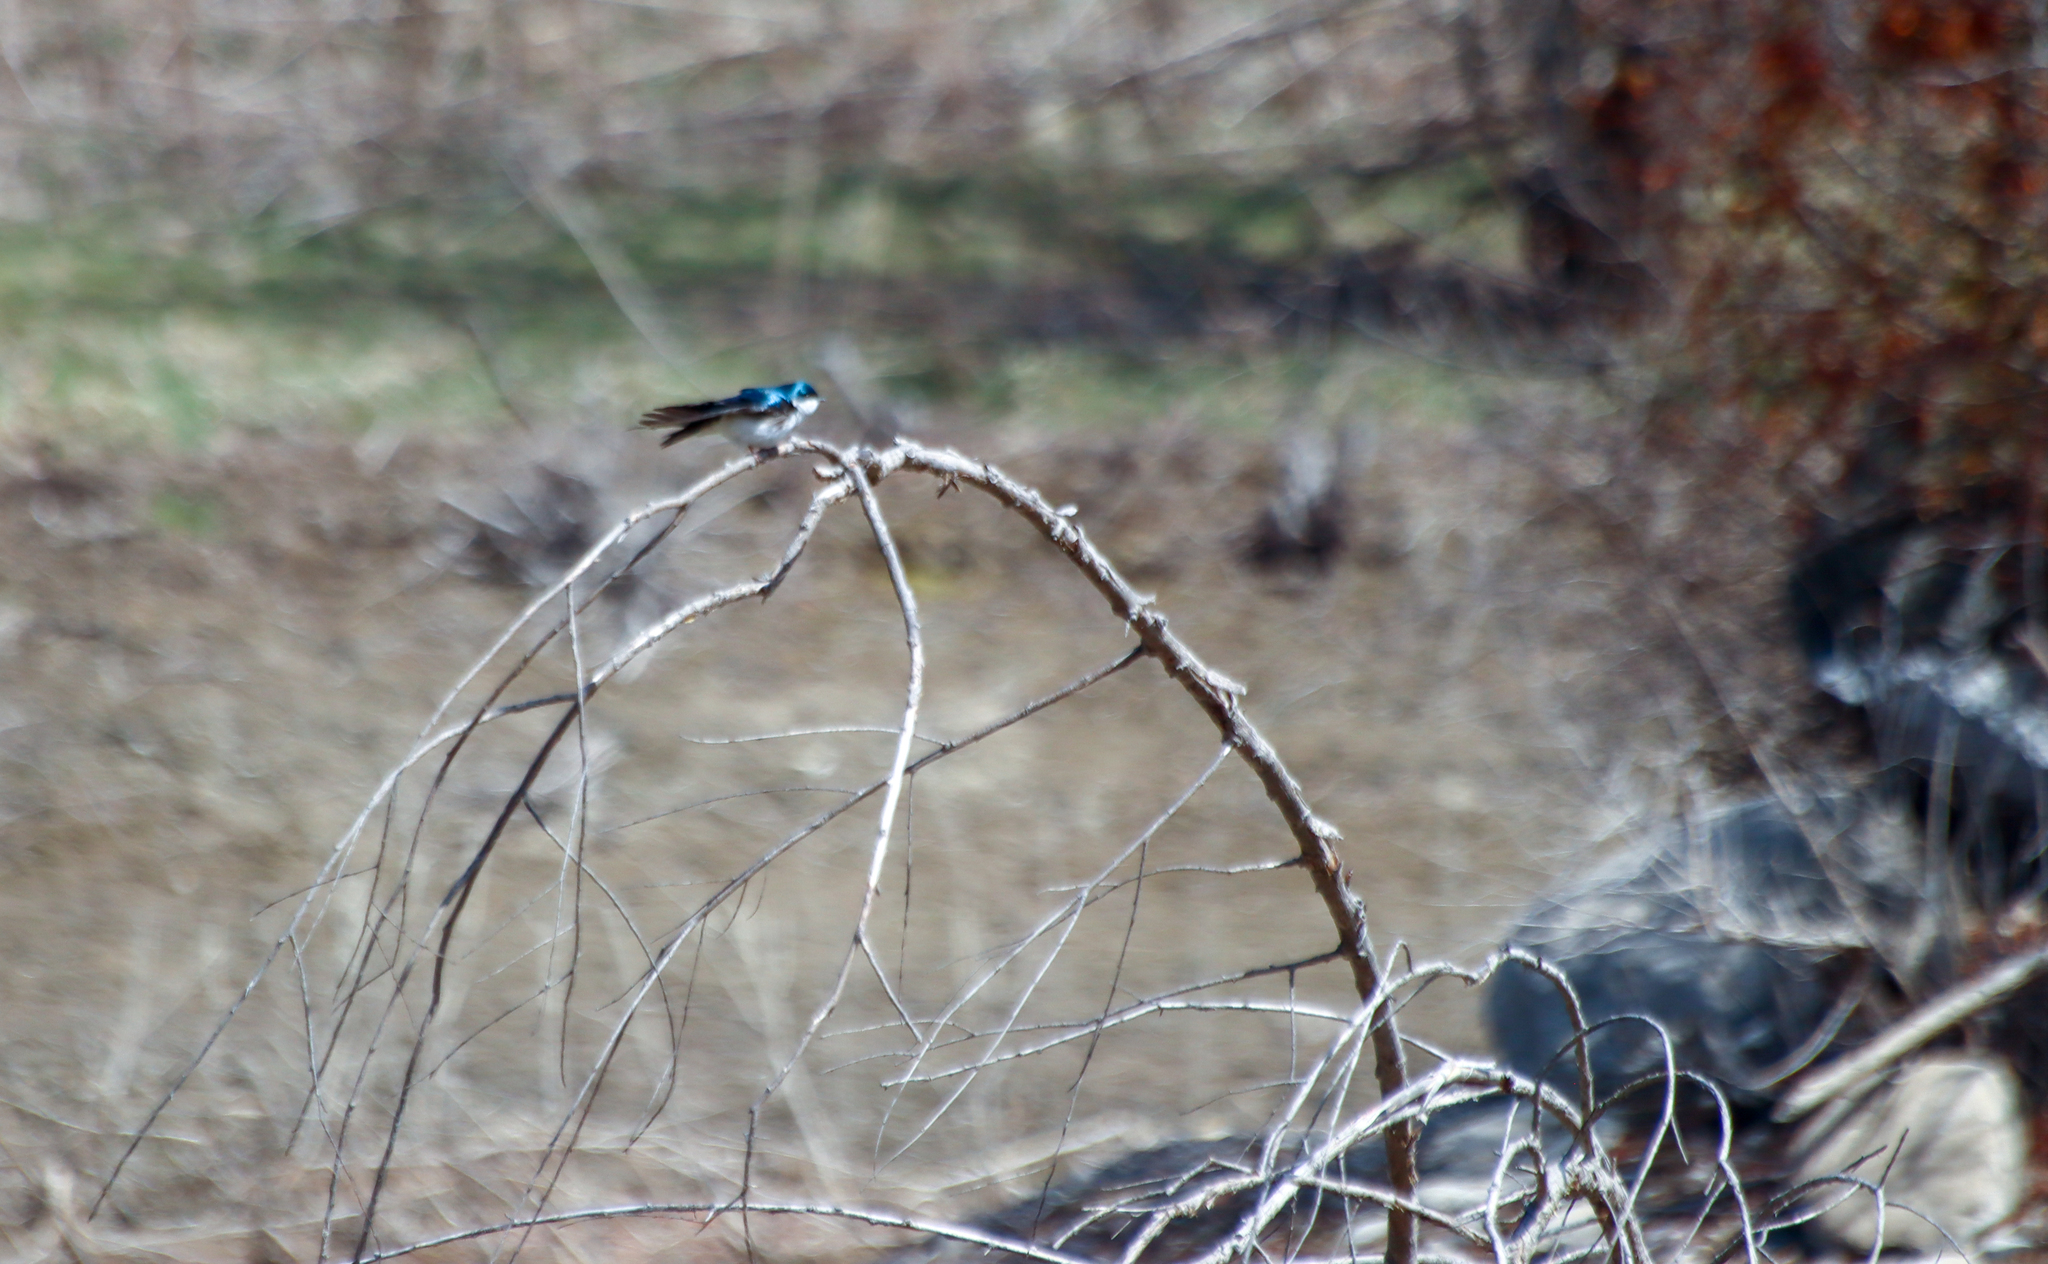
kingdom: Animalia
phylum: Chordata
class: Aves
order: Passeriformes
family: Hirundinidae
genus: Tachycineta
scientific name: Tachycineta bicolor
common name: Tree swallow
